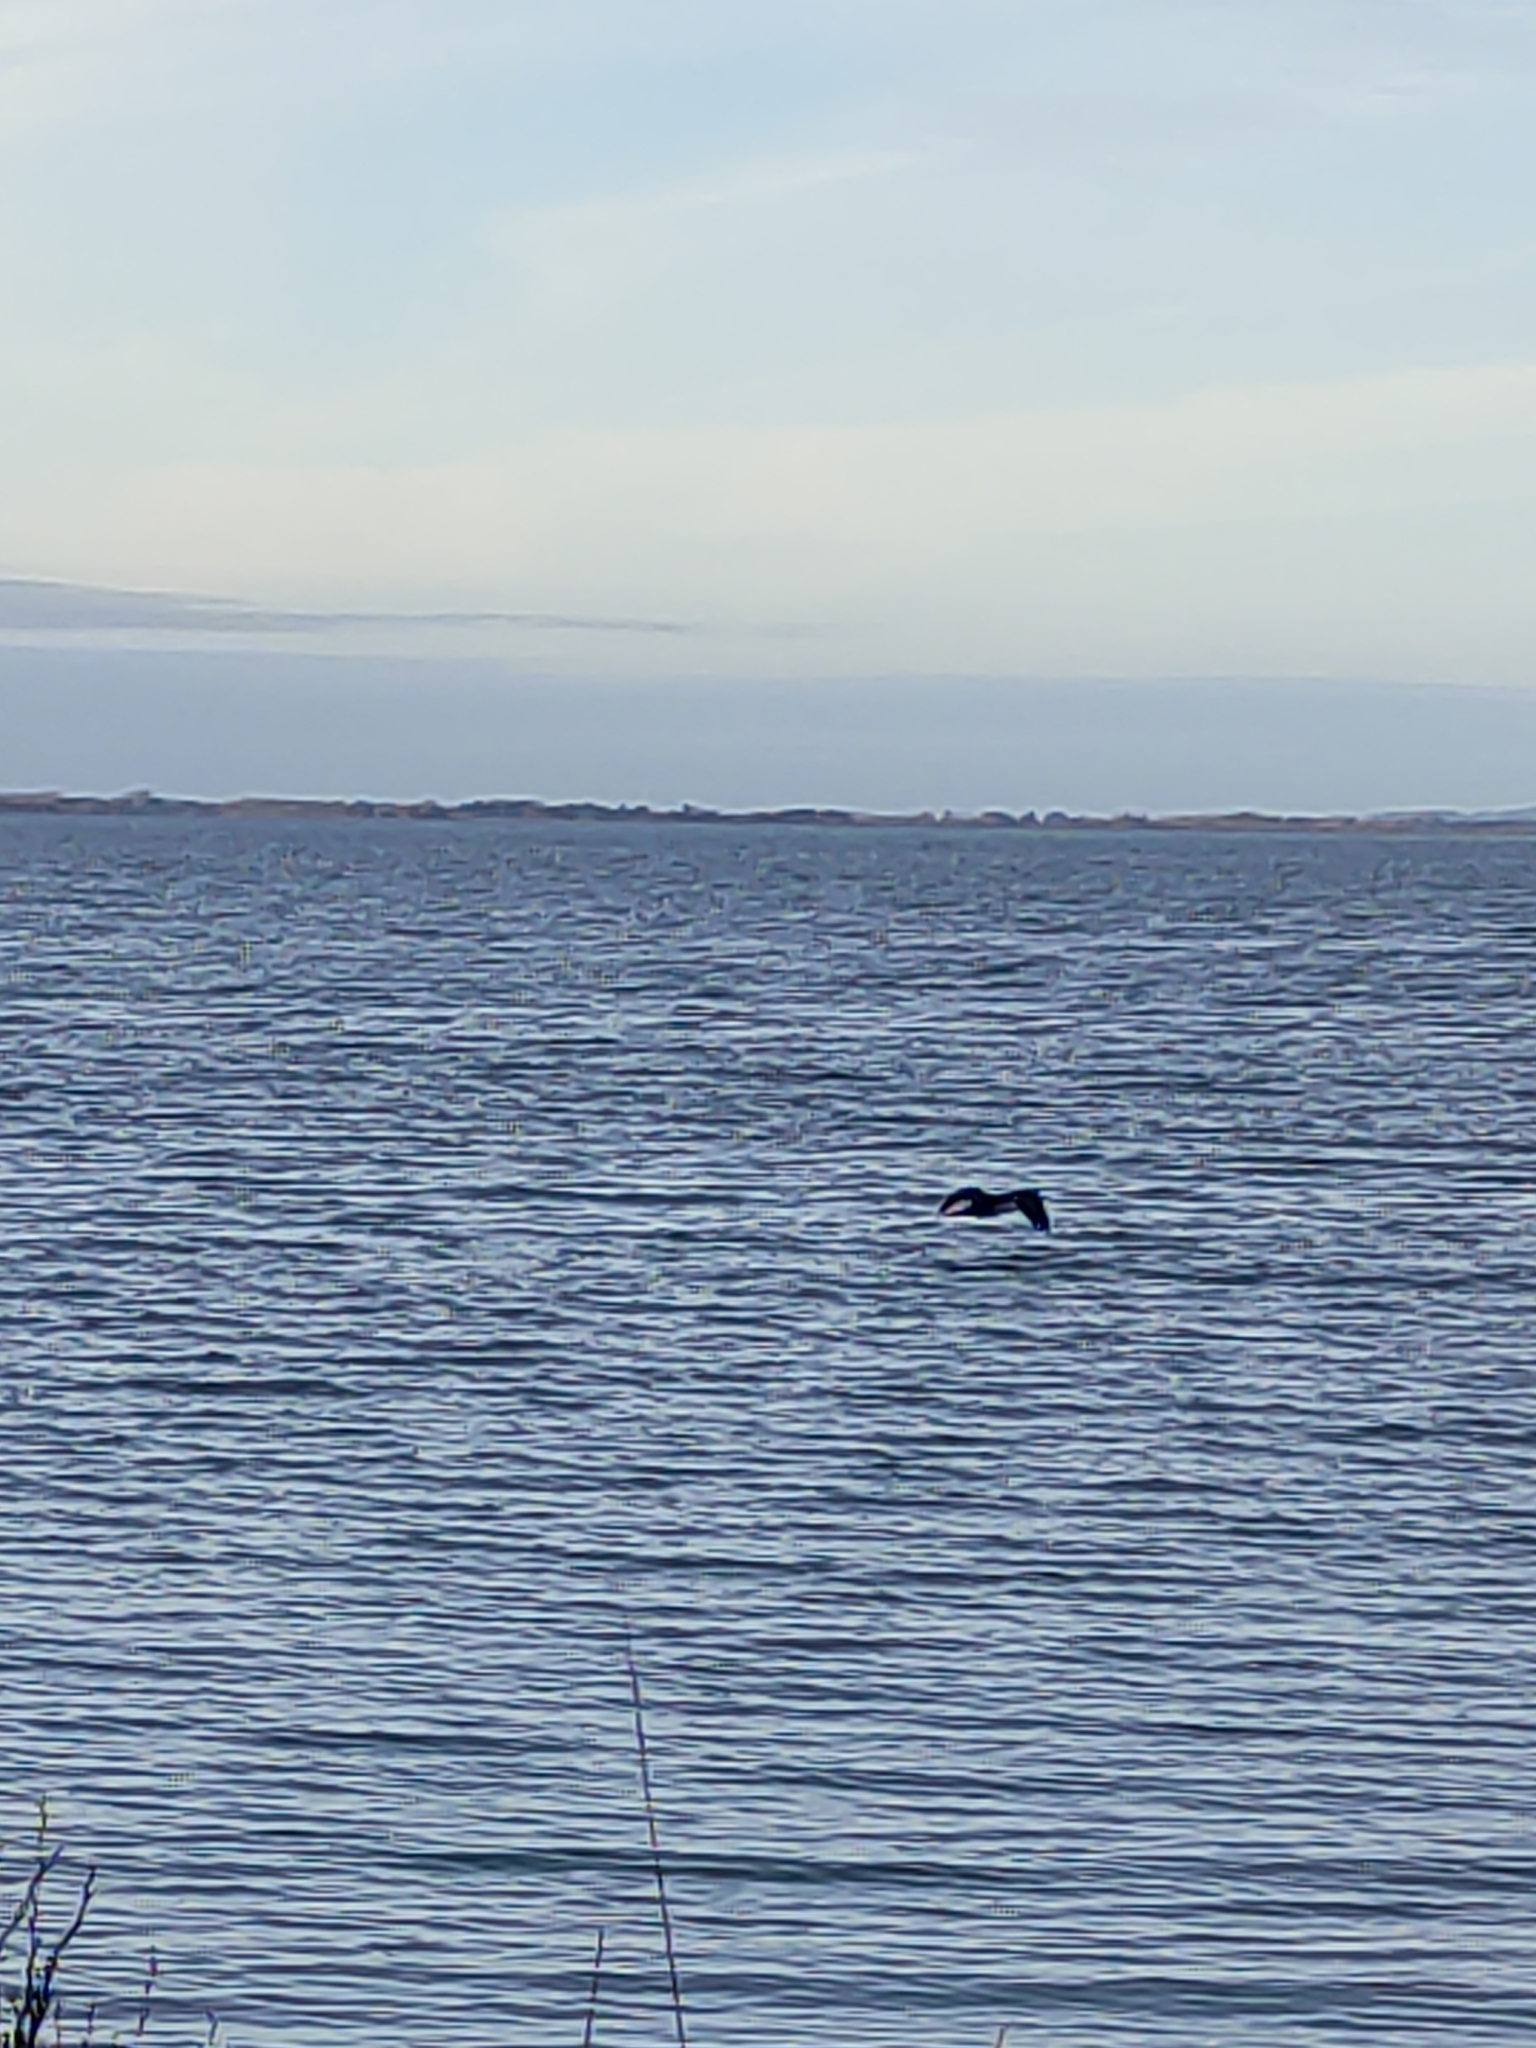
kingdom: Animalia
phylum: Chordata
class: Aves
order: Suliformes
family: Phalacrocoracidae
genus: Phalacrocorax
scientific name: Phalacrocorax varius
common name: Pied cormorant
